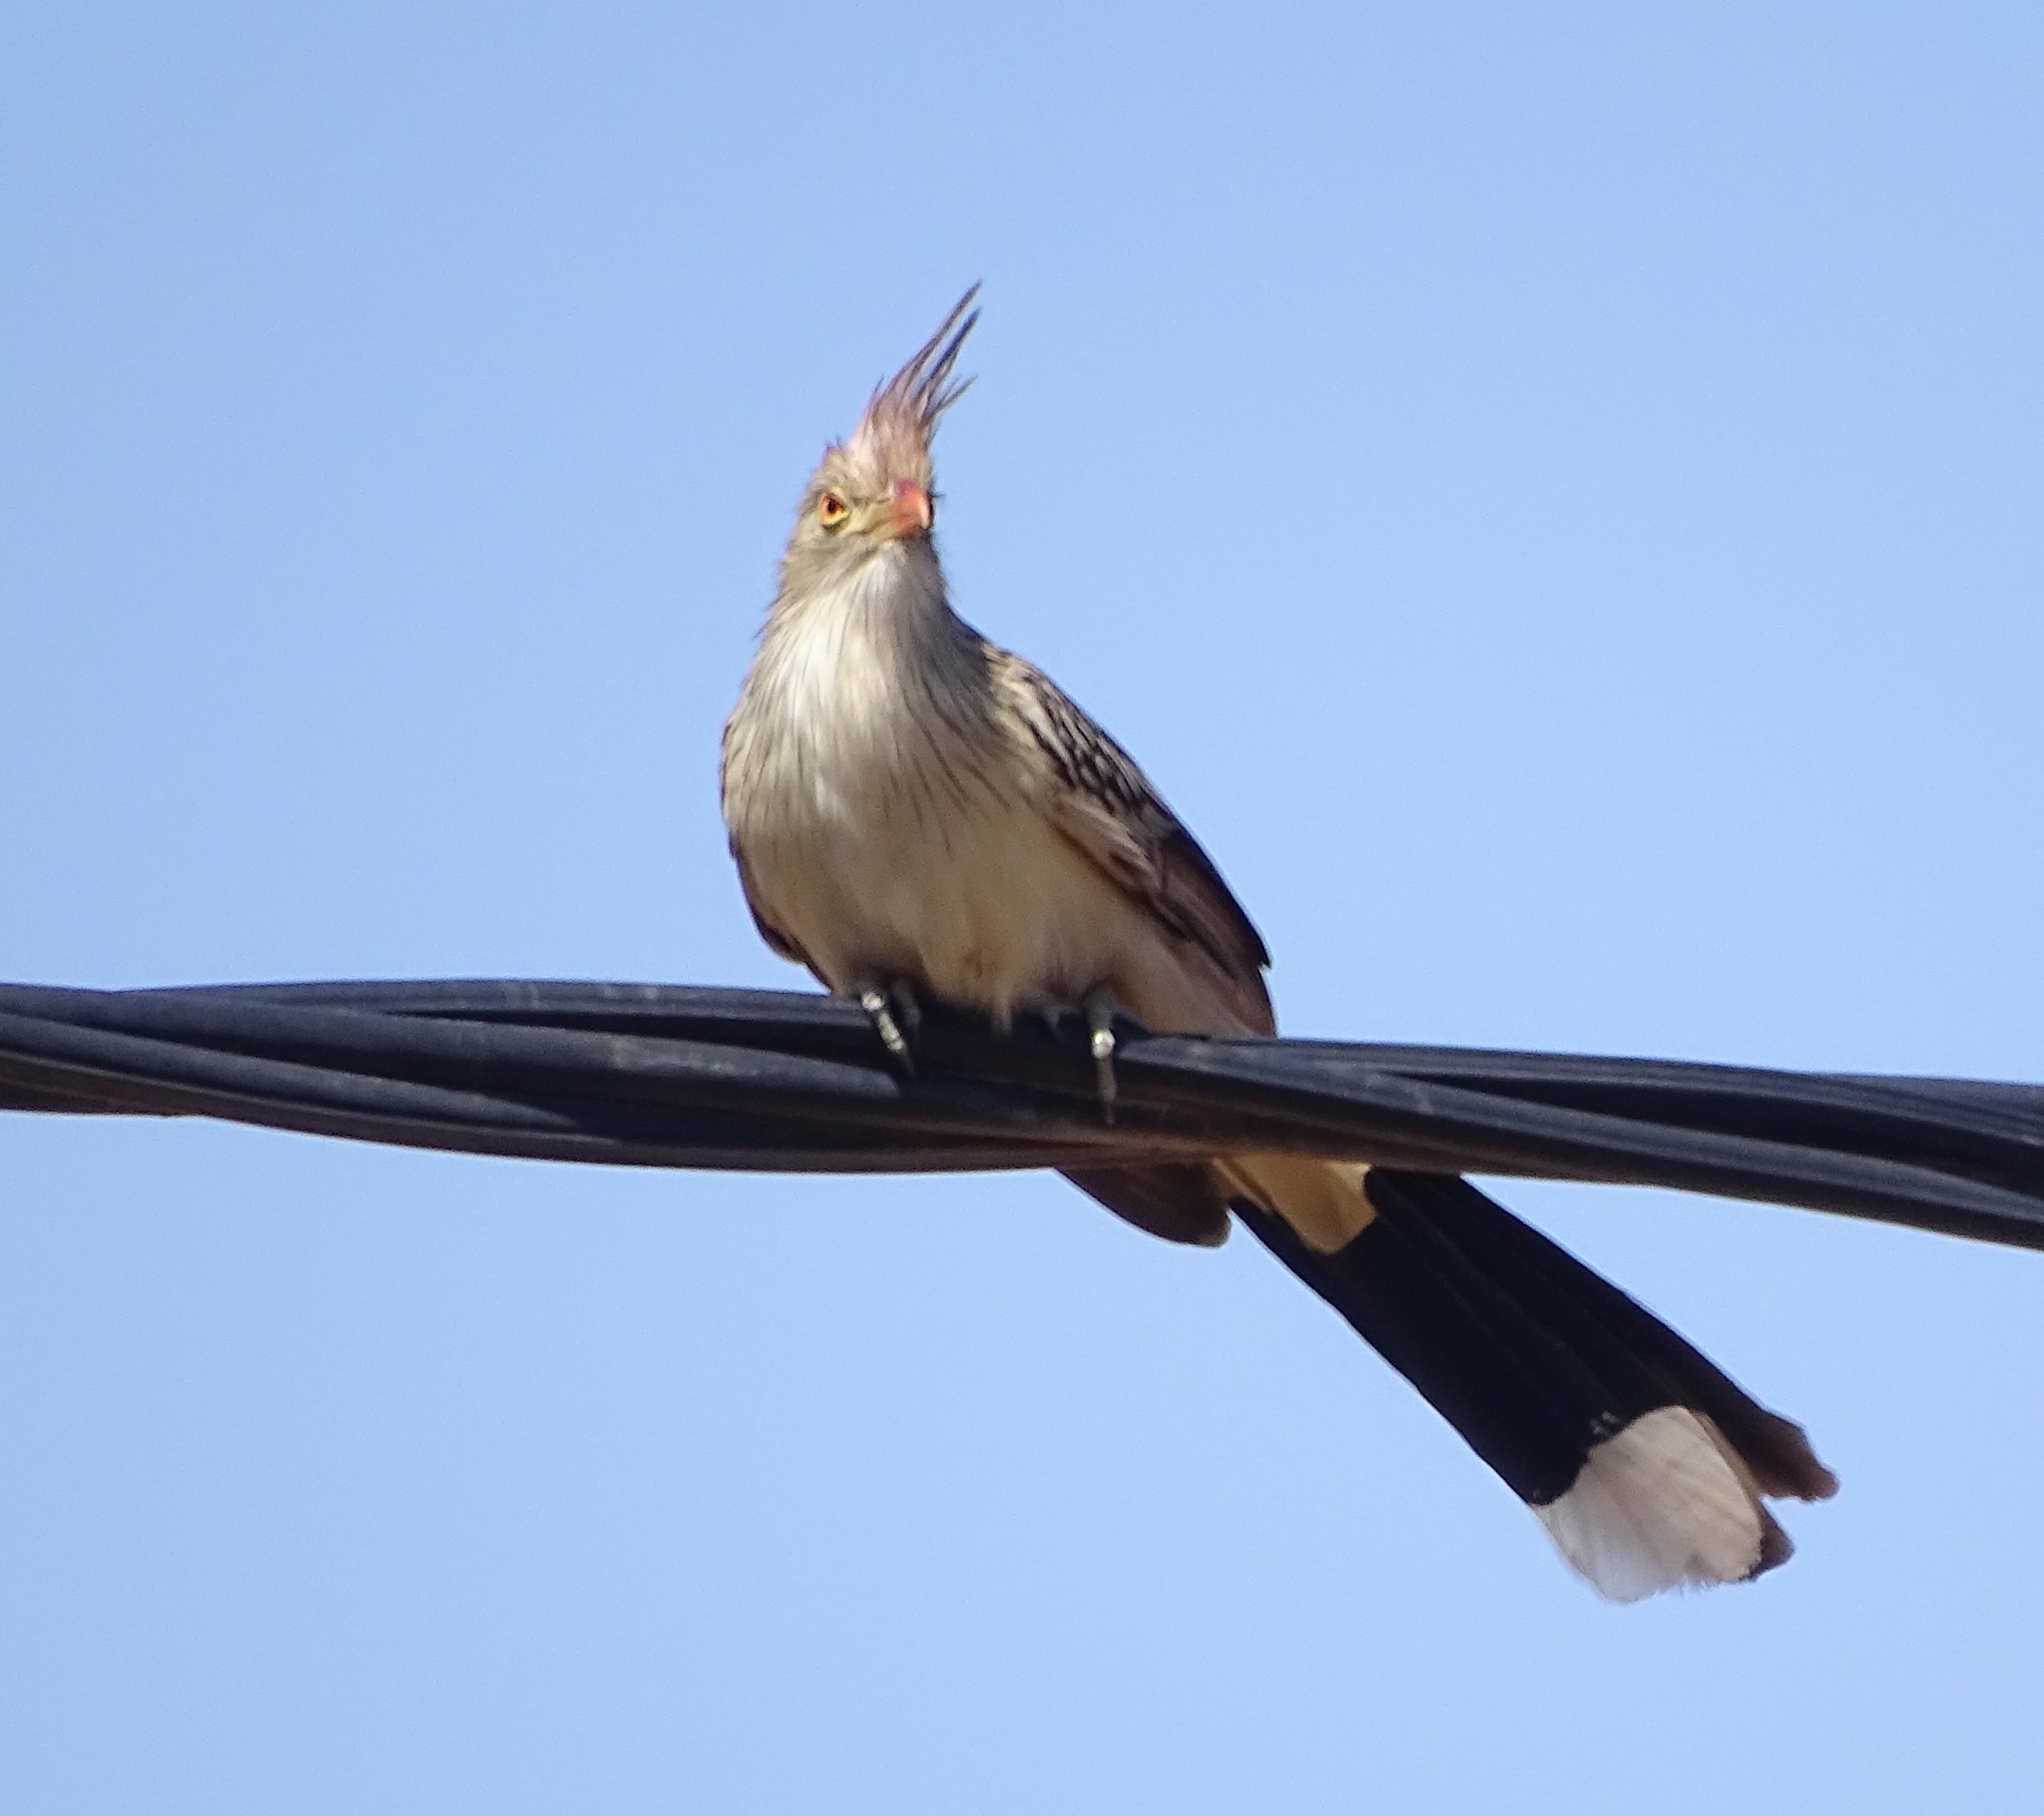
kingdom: Animalia
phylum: Chordata
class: Aves
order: Cuculiformes
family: Cuculidae
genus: Guira
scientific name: Guira guira
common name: Guira cuckoo
